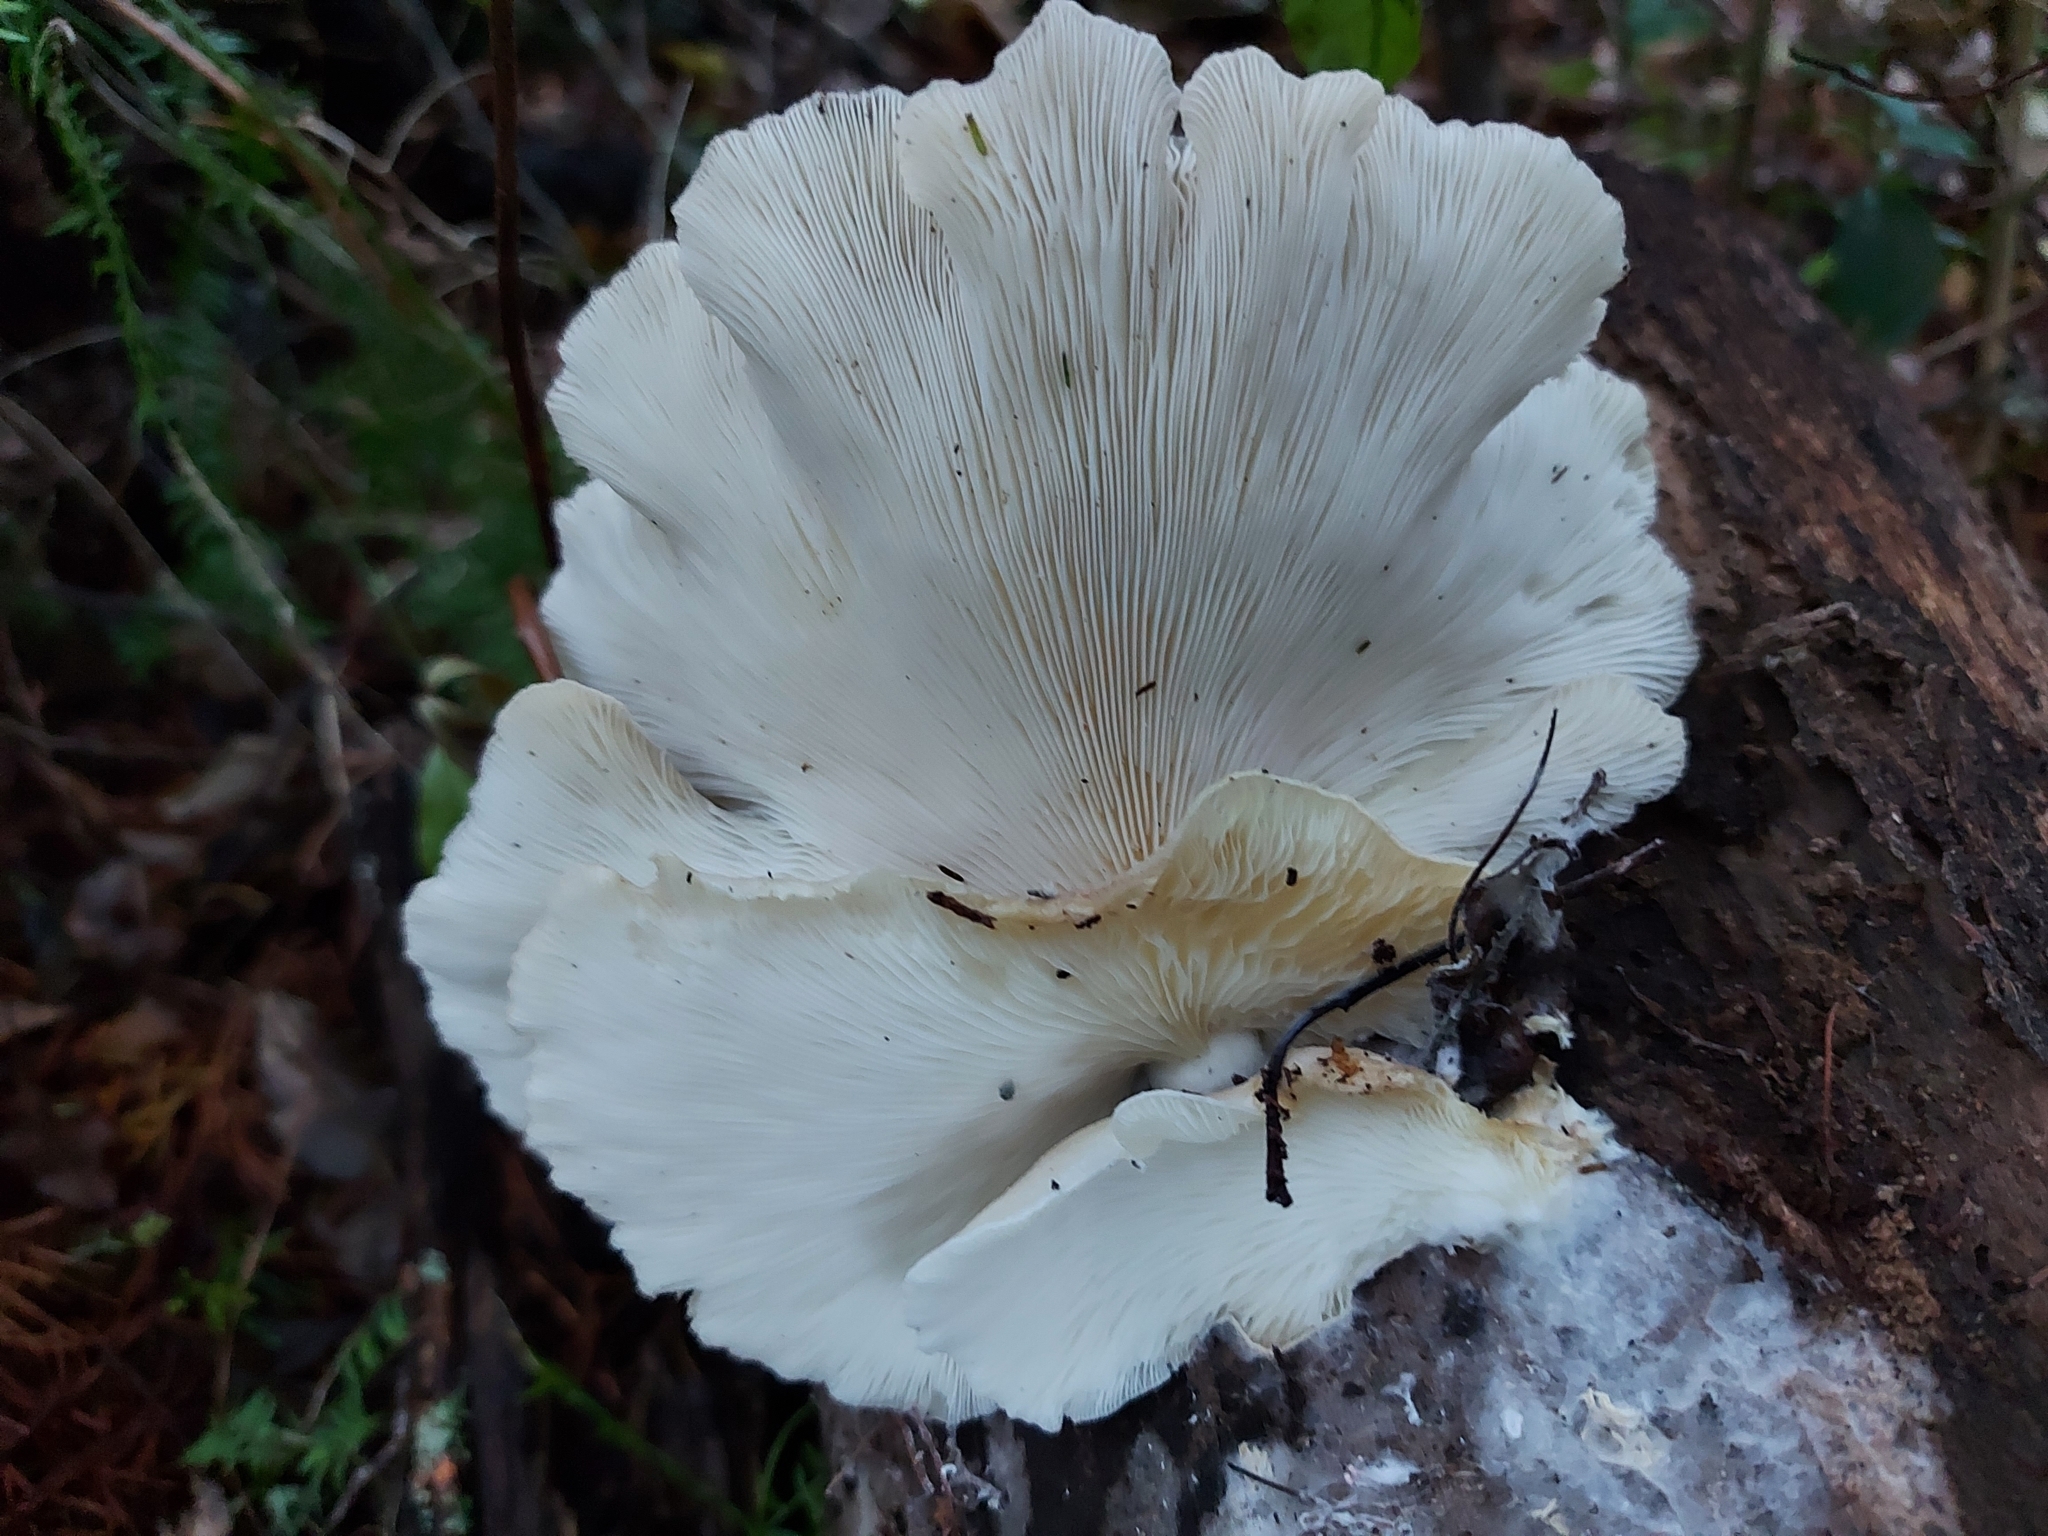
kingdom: Fungi
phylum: Basidiomycota
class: Agaricomycetes
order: Agaricales
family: Pleurotaceae
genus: Pleurotus
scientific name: Pleurotus parsonsiae
